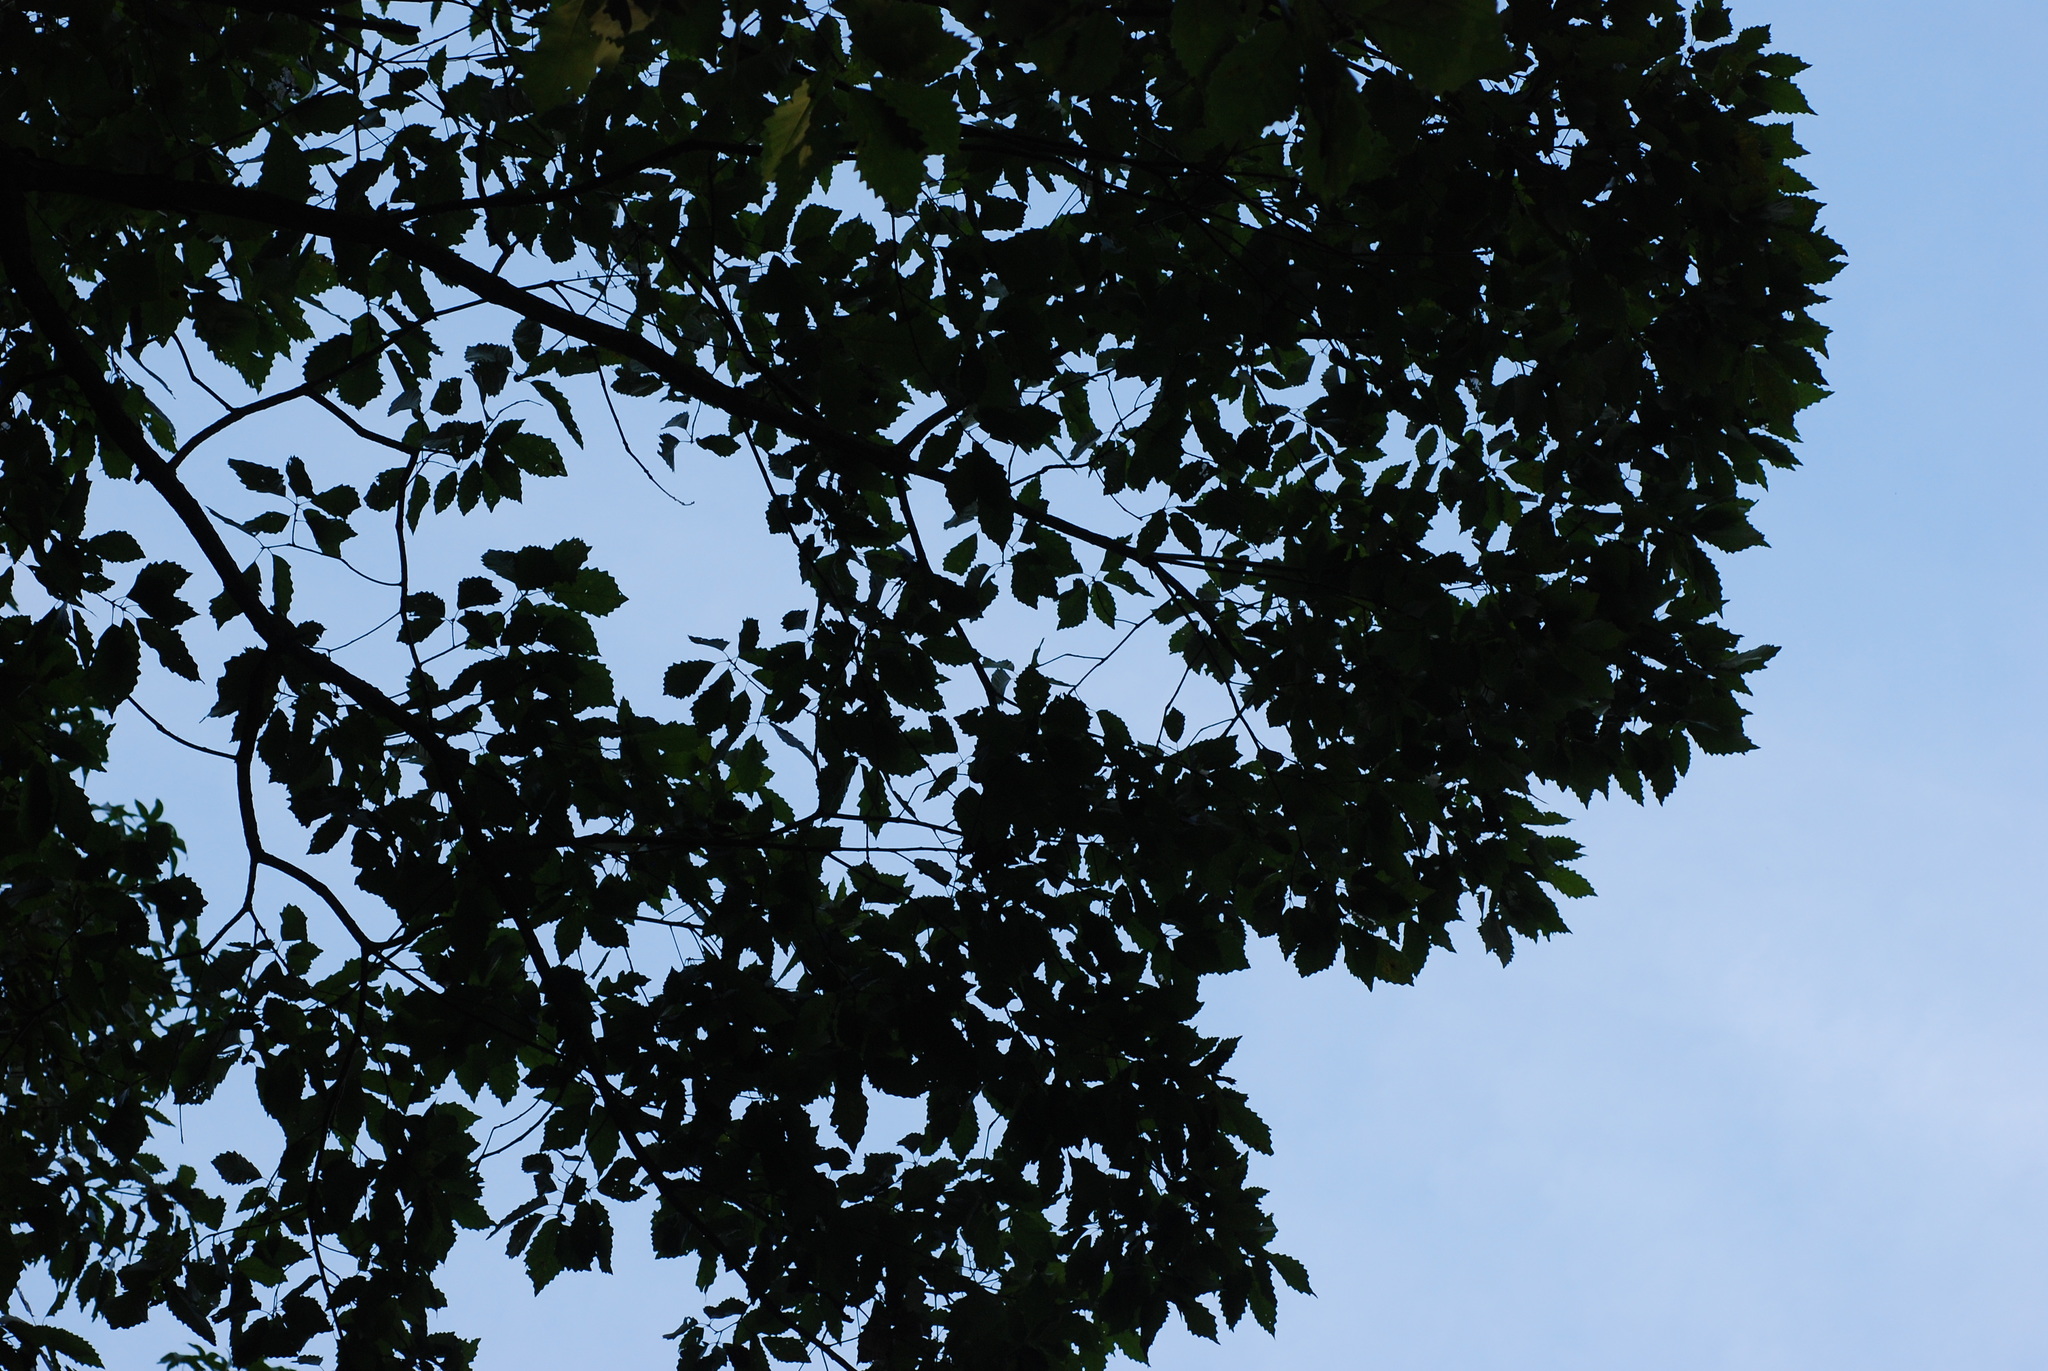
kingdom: Plantae
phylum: Tracheophyta
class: Magnoliopsida
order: Fagales
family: Fagaceae
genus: Quercus
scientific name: Quercus muehlenbergii
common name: Chinkapin oak
